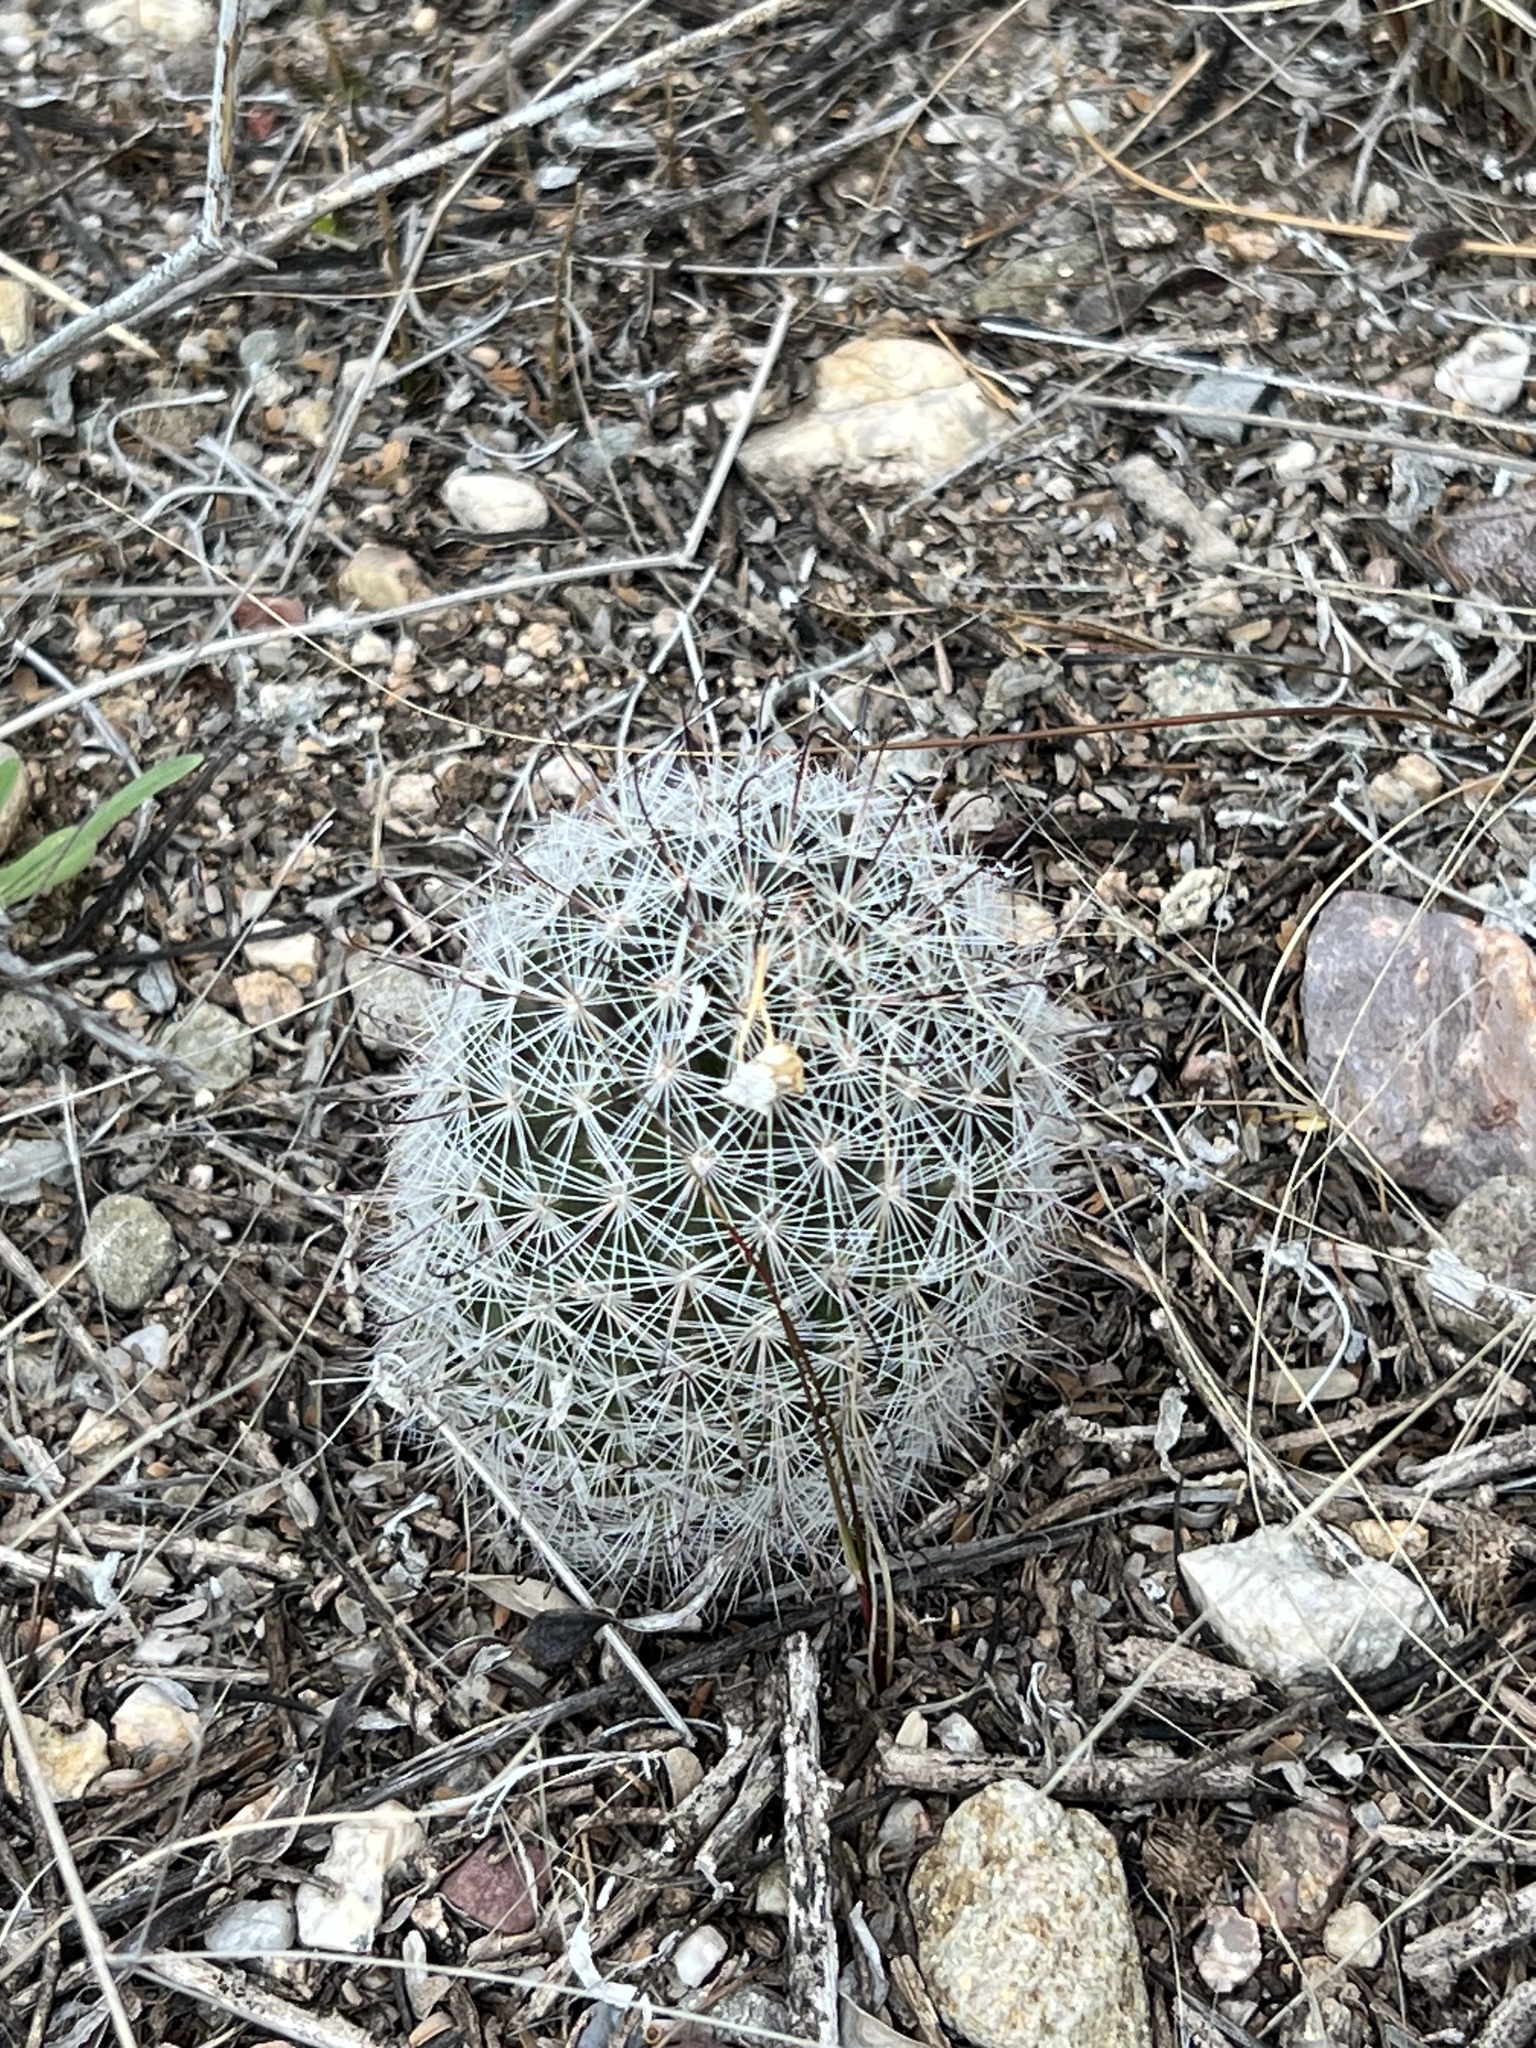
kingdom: Plantae
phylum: Tracheophyta
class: Magnoliopsida
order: Caryophyllales
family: Cactaceae
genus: Cochemiea
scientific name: Cochemiea grahamii
